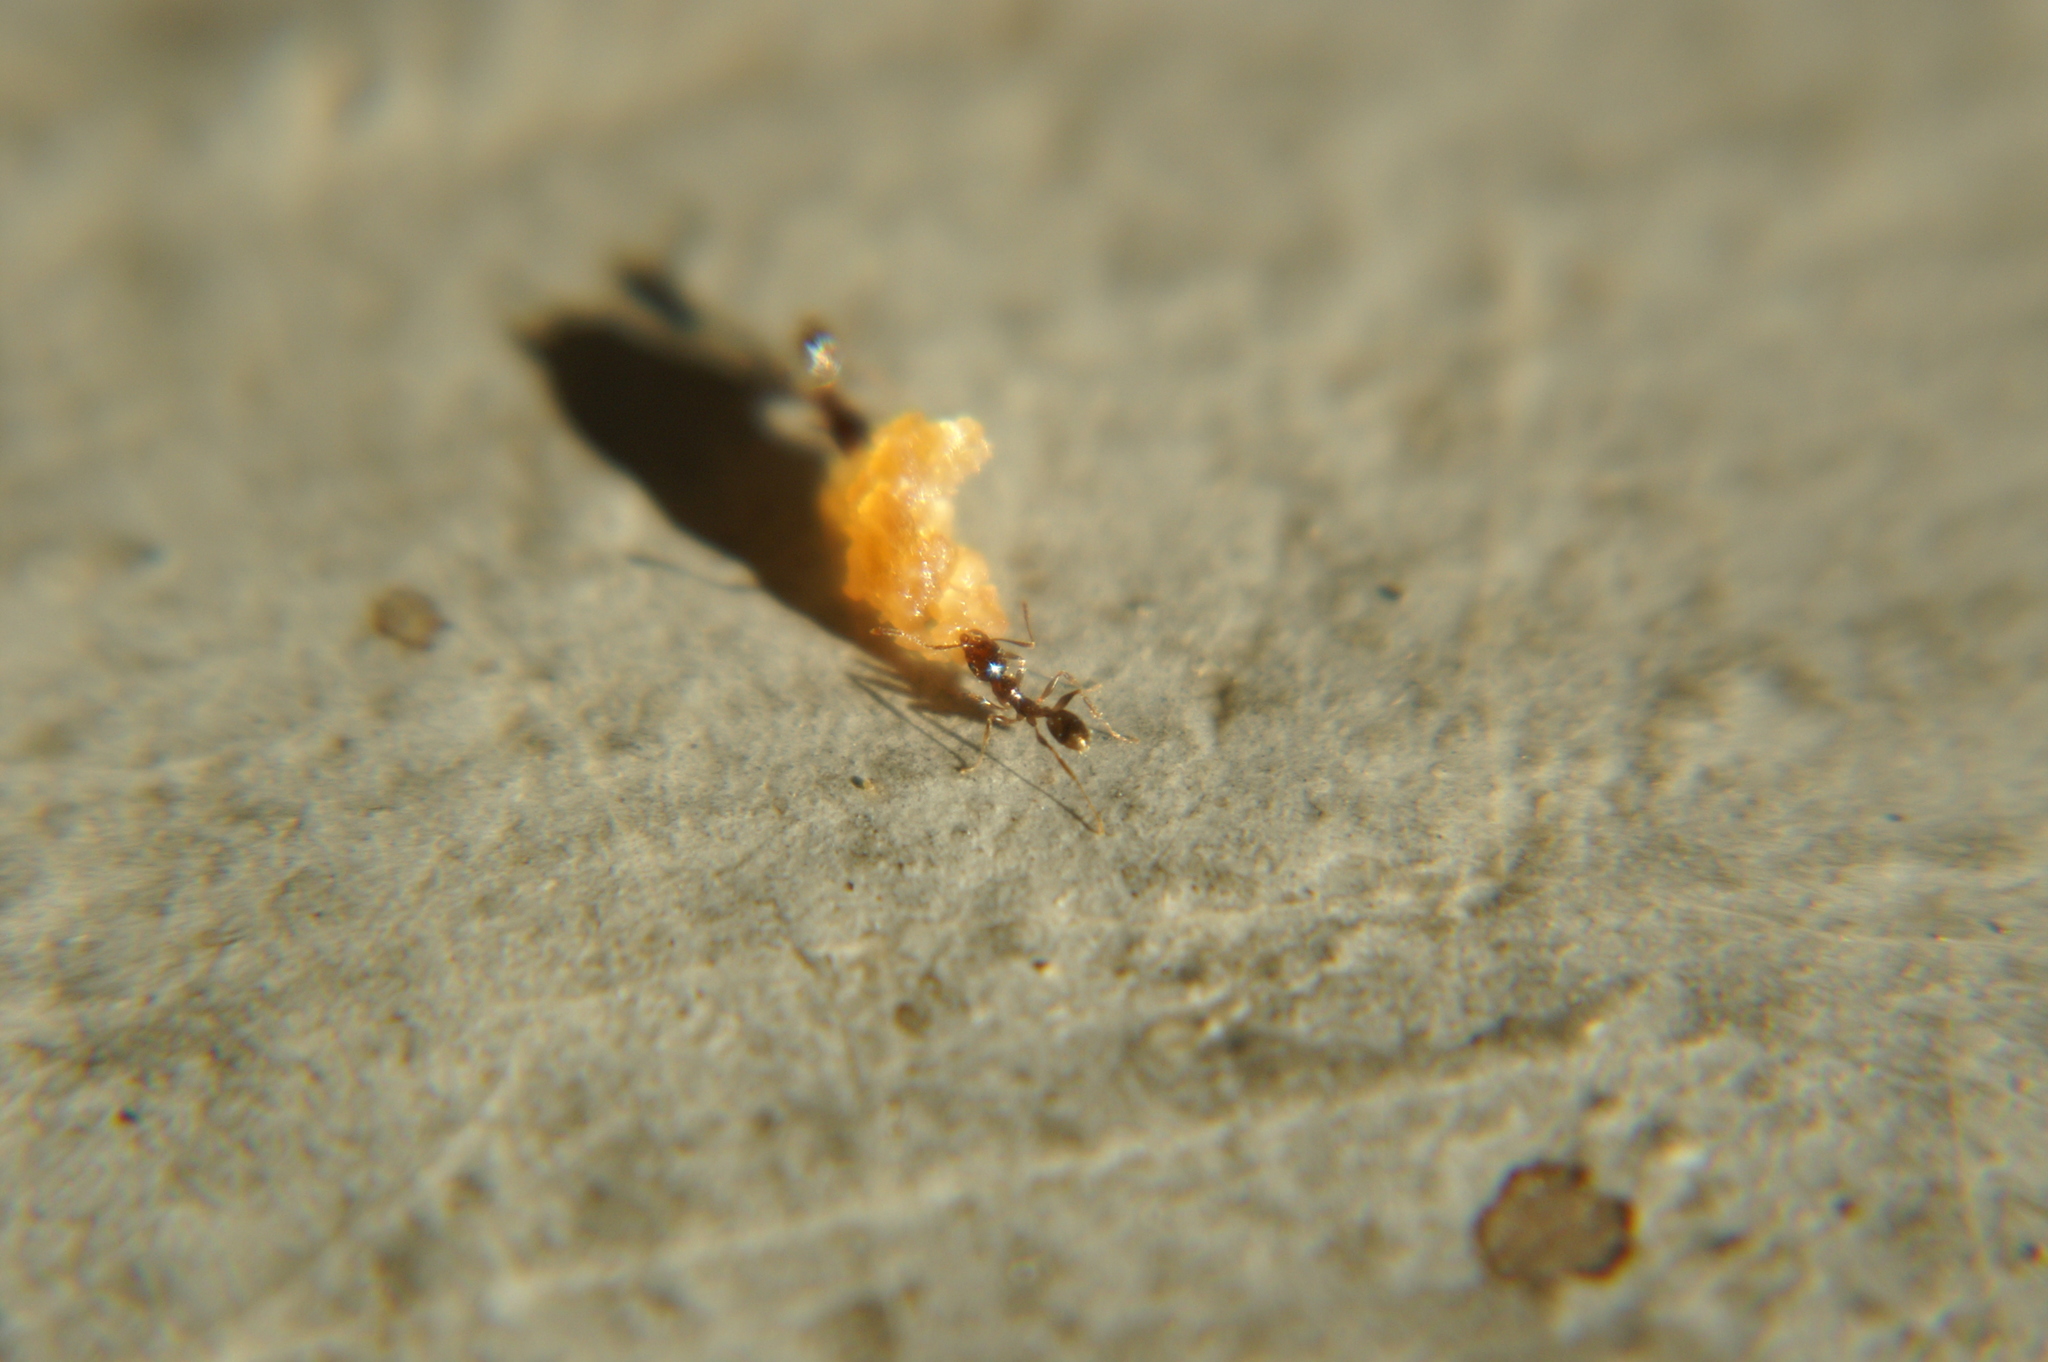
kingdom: Animalia
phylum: Arthropoda
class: Insecta
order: Hymenoptera
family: Formicidae
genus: Pheidole
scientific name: Pheidole pallidula
